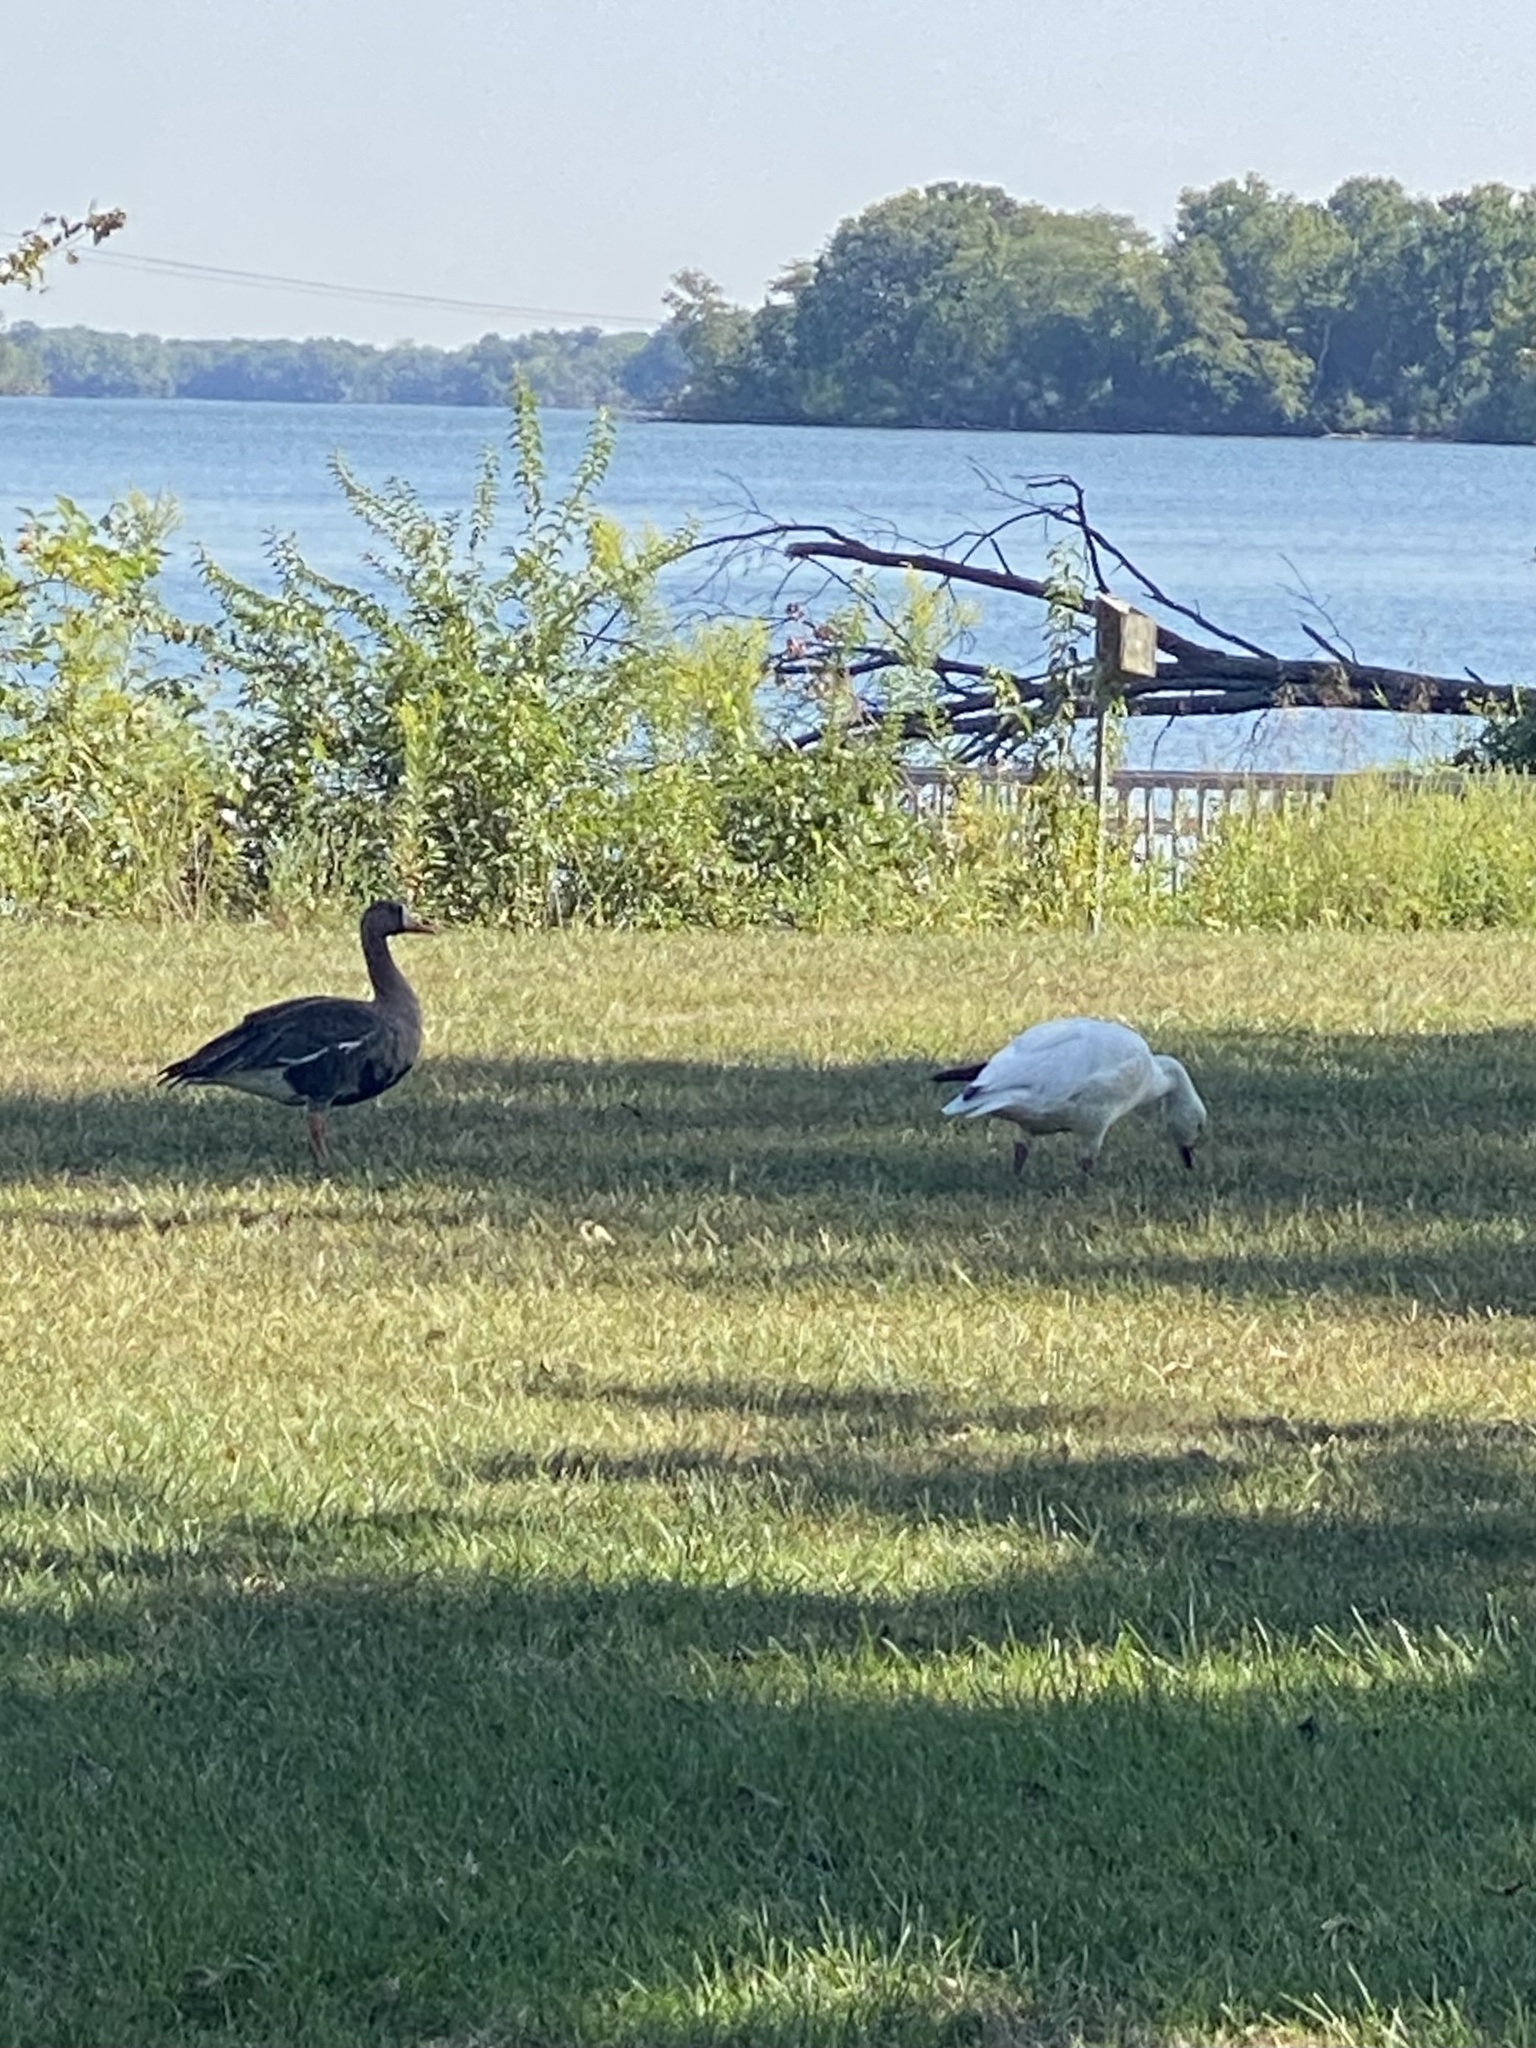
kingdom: Animalia
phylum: Chordata
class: Aves
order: Anseriformes
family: Anatidae
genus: Anser
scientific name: Anser albifrons
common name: Greater white-fronted goose
